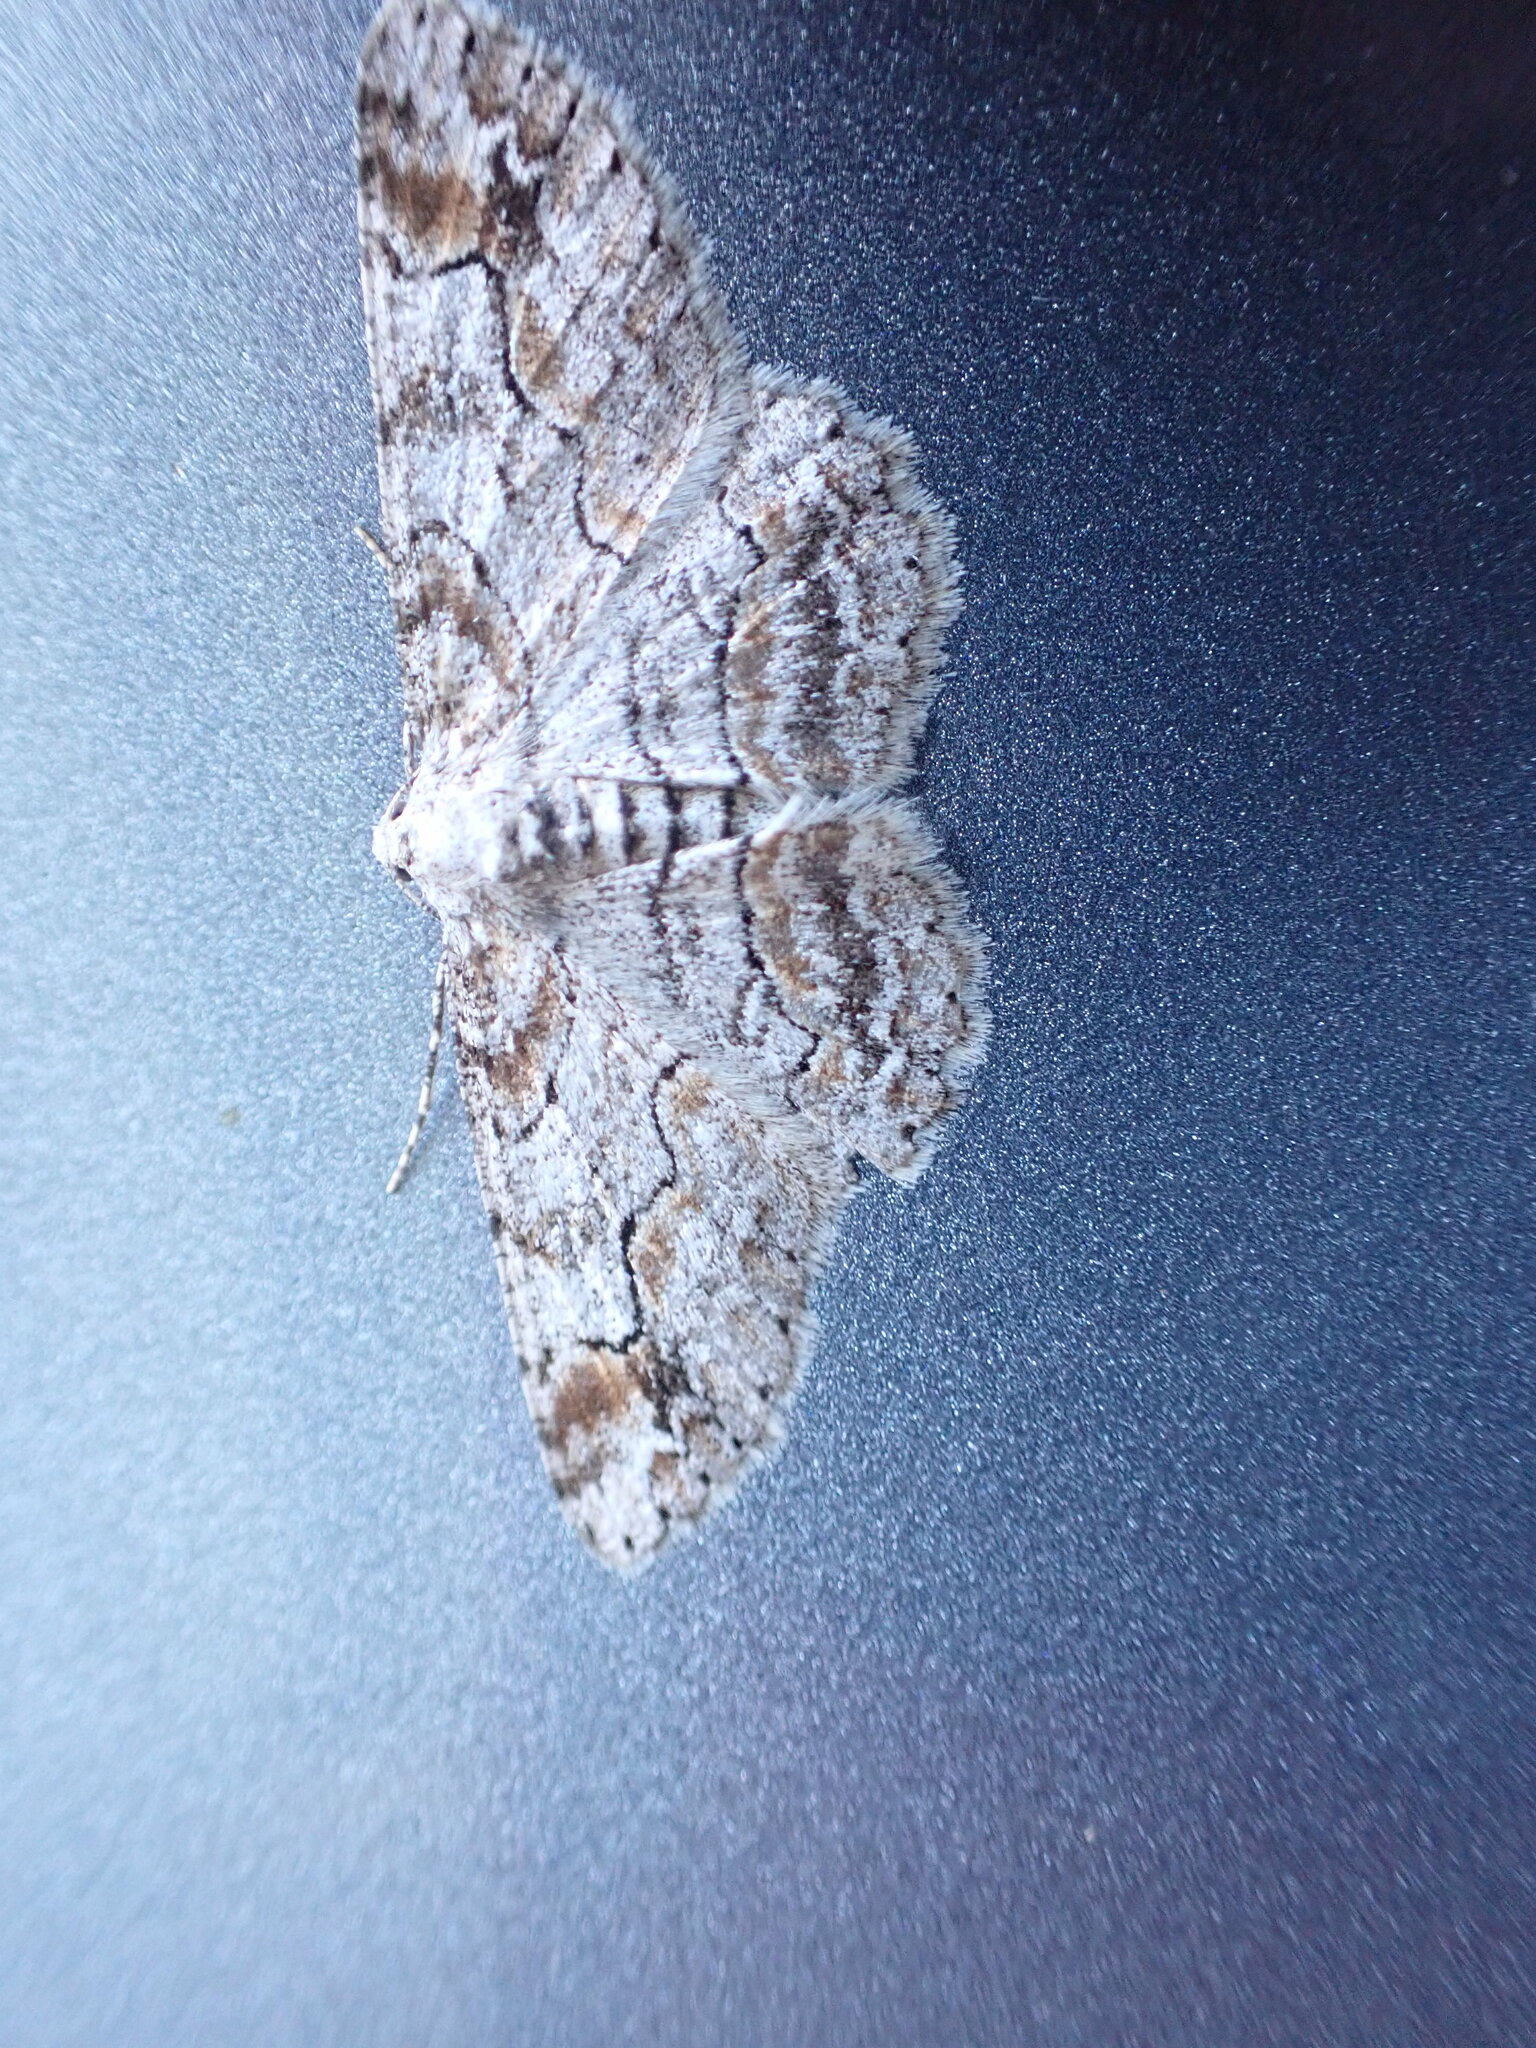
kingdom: Animalia
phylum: Arthropoda
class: Insecta
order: Lepidoptera
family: Geometridae
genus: Iridopsis
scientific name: Iridopsis emasculatum
